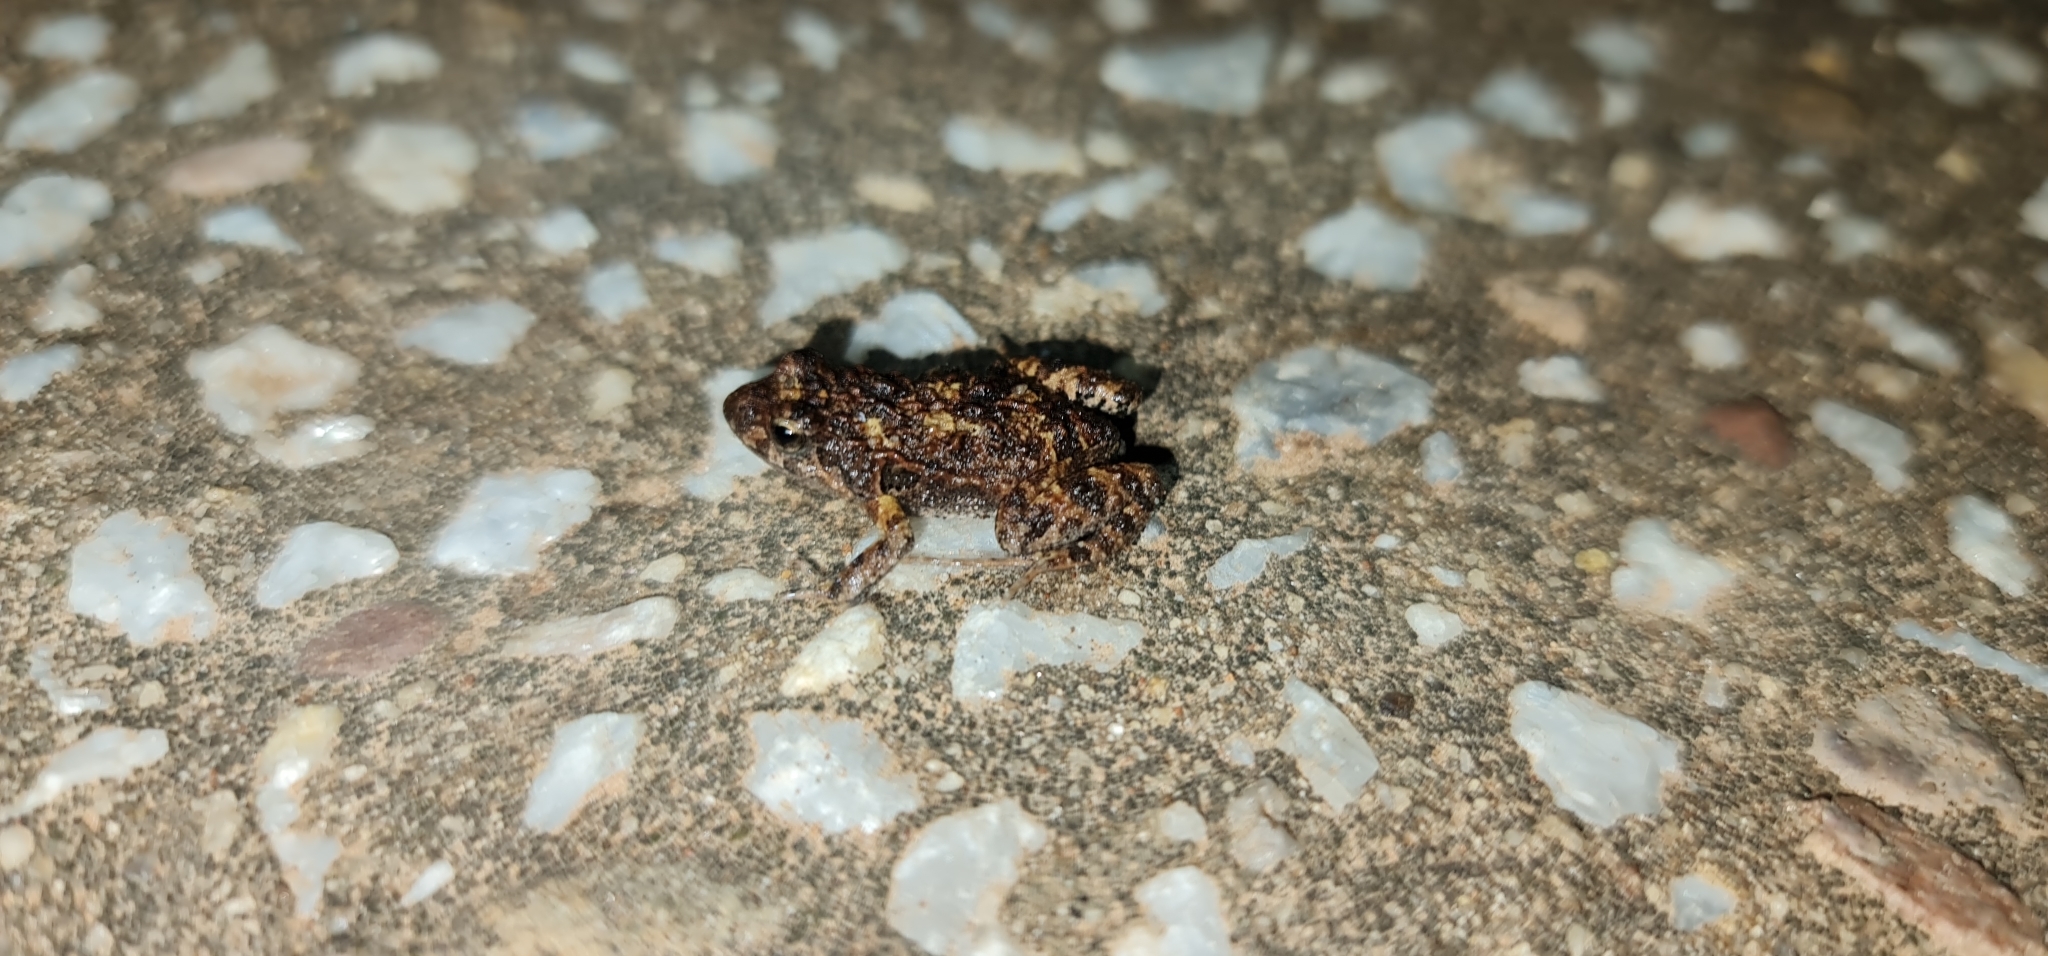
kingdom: Animalia
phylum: Chordata
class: Amphibia
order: Anura
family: Myobatrachidae
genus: Crinia
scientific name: Crinia signifera
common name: Brown froglet
